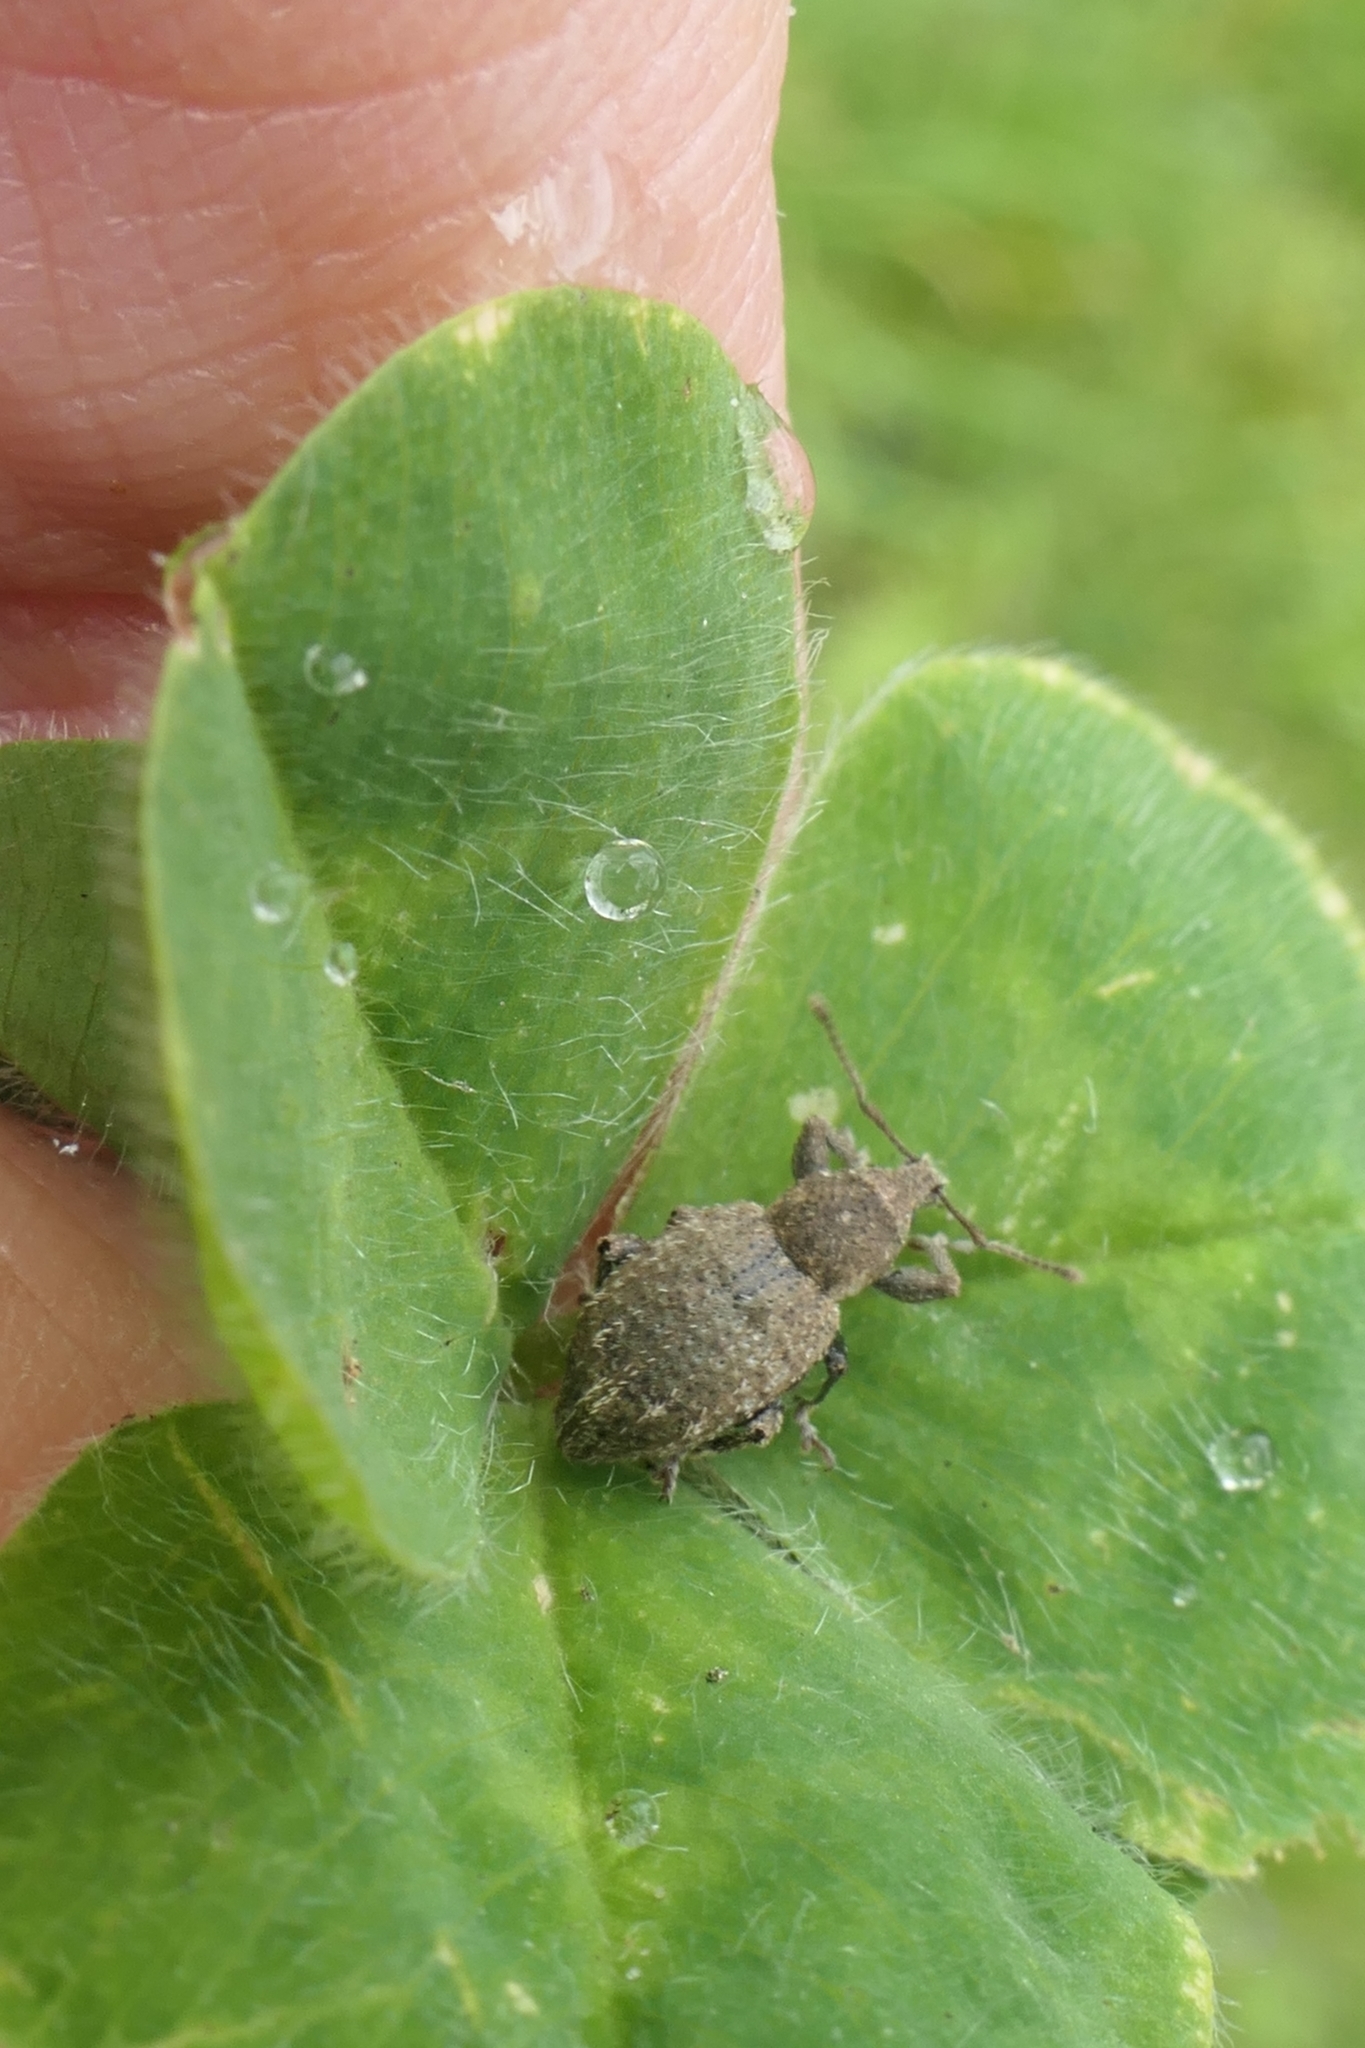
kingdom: Animalia
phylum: Arthropoda
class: Insecta
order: Coleoptera
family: Curculionidae
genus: Irenimus
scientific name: Irenimus parilis
